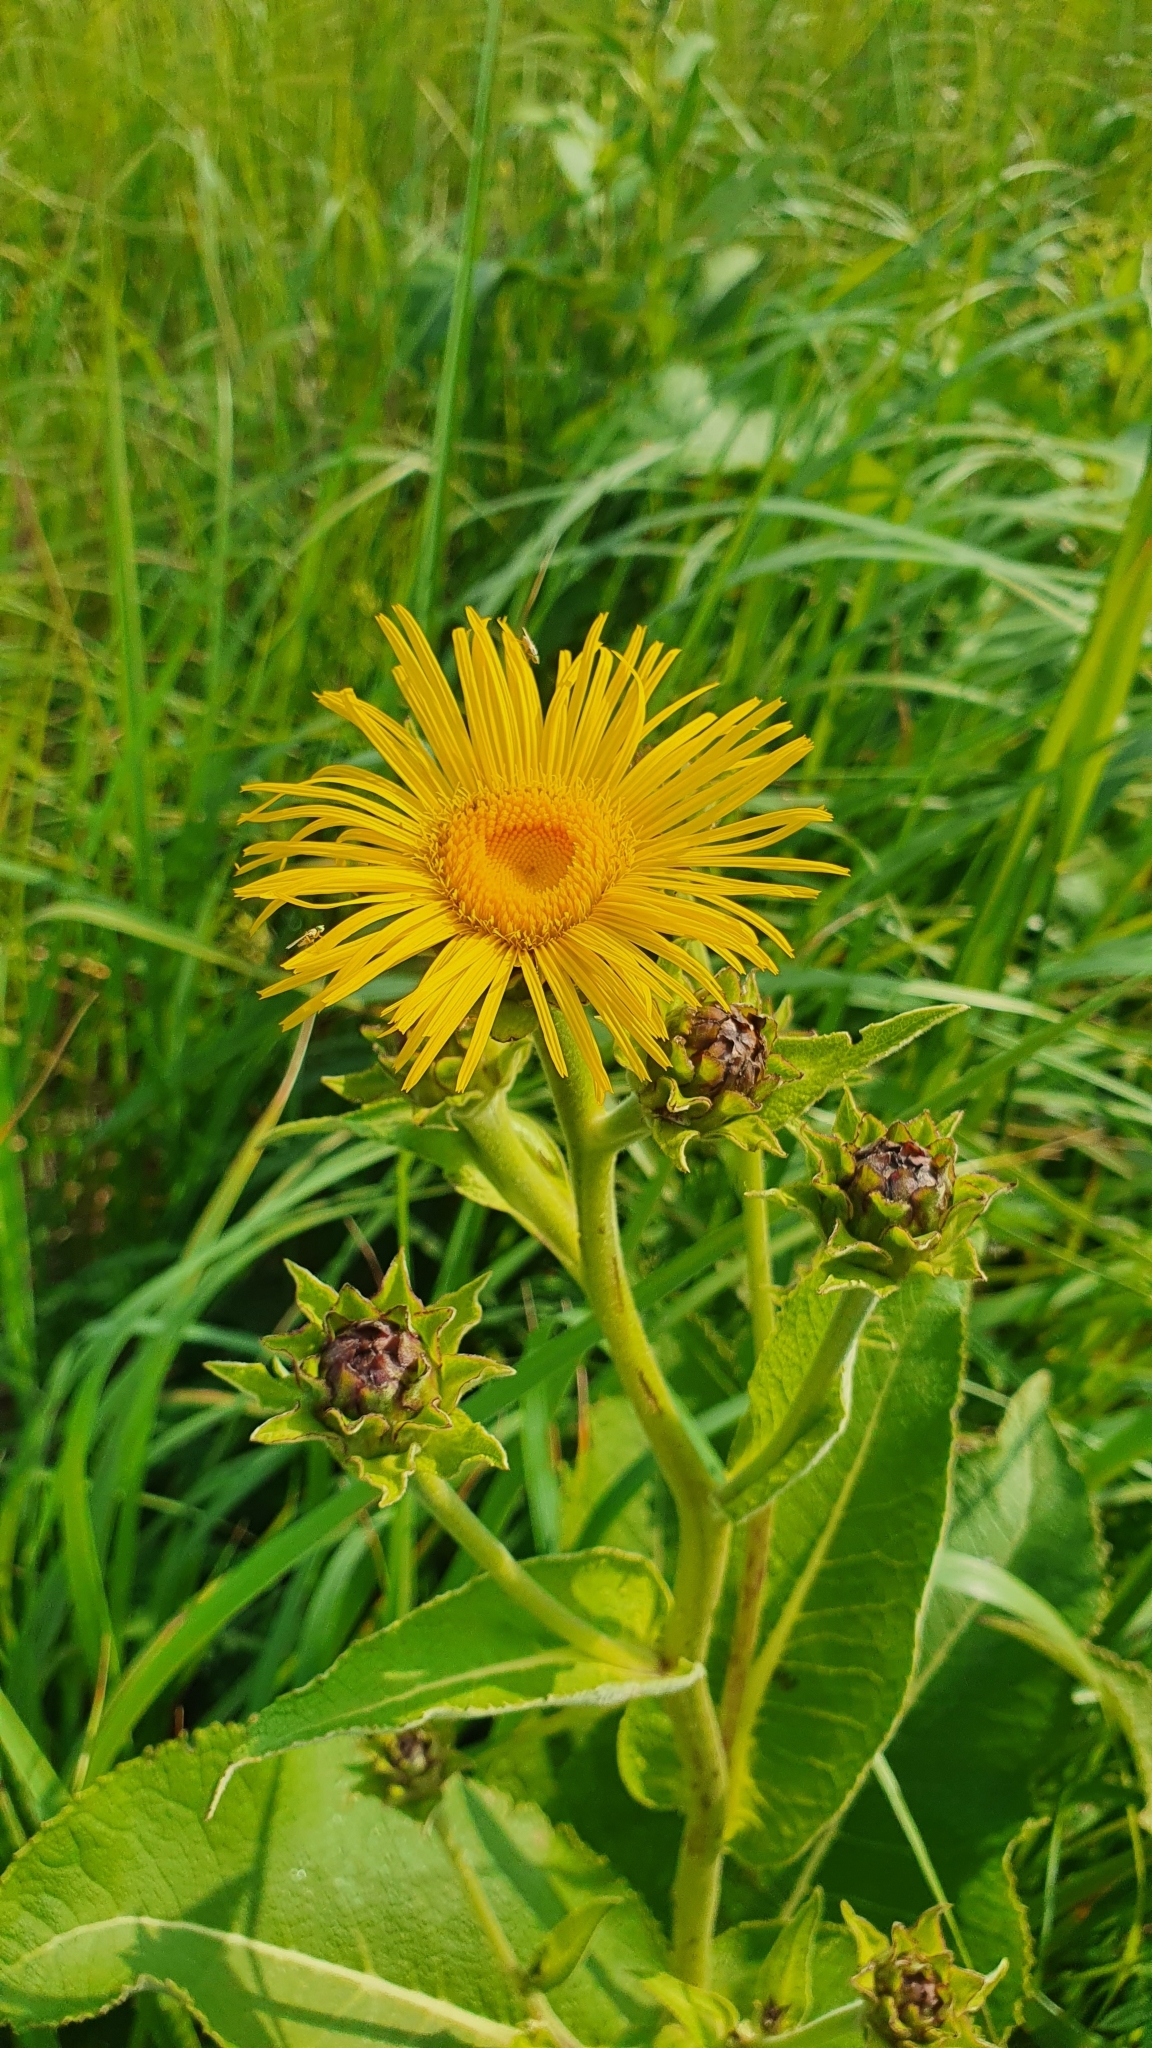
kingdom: Plantae
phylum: Tracheophyta
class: Magnoliopsida
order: Asterales
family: Asteraceae
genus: Inula
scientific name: Inula helenium
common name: Elecampane
